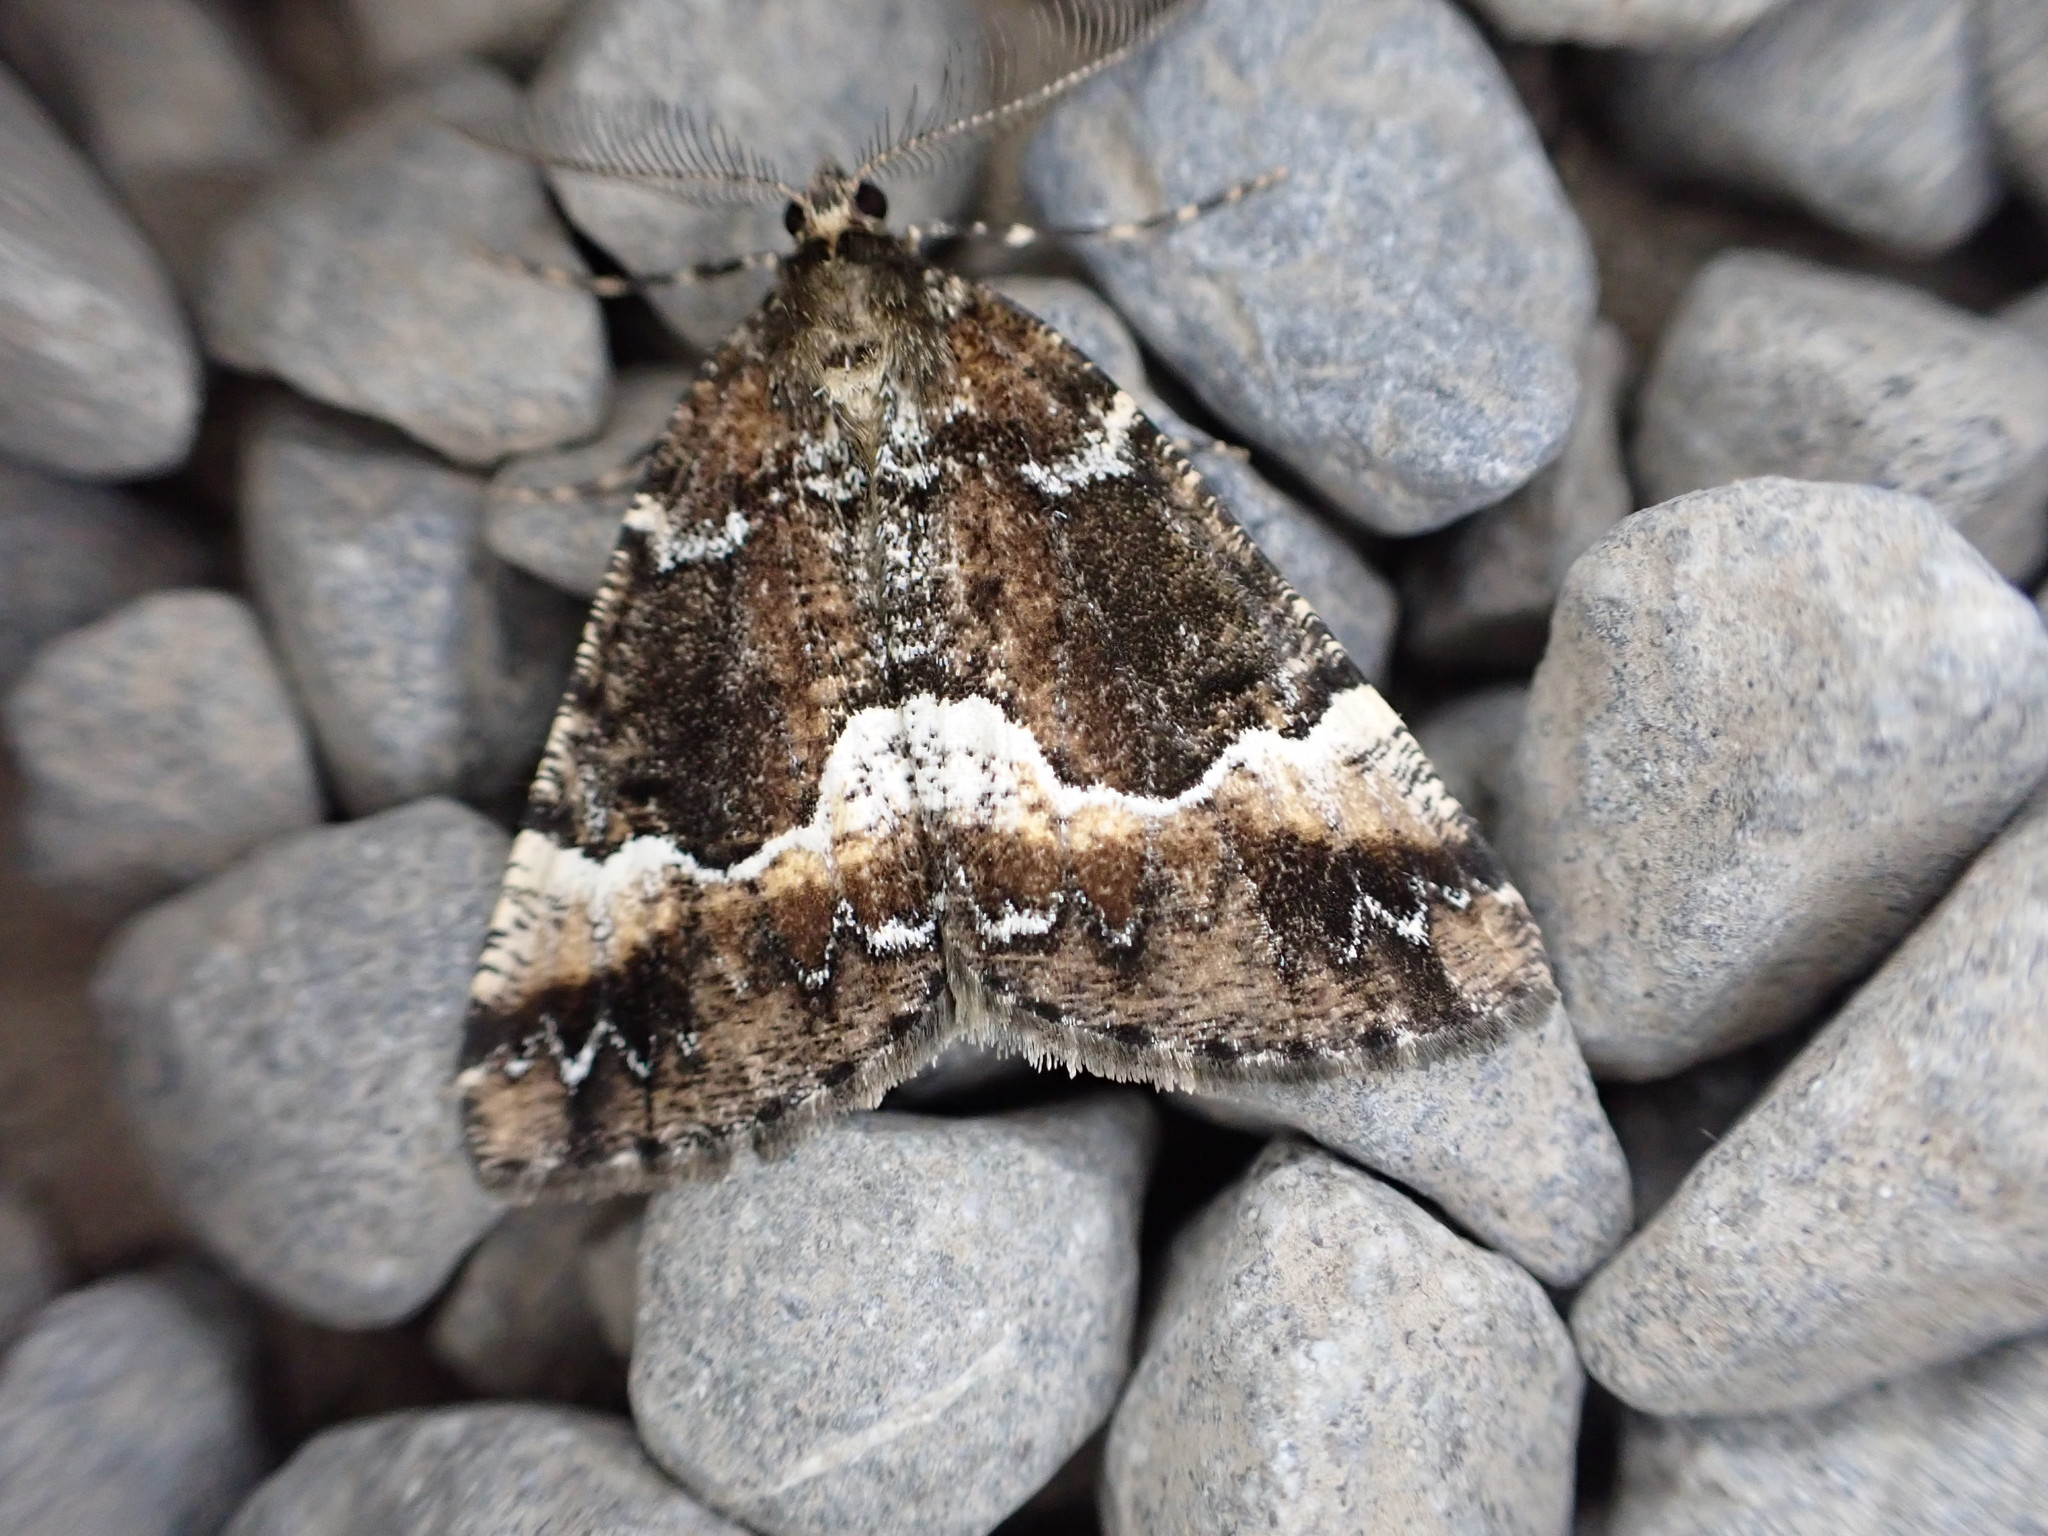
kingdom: Animalia
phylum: Arthropoda
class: Insecta
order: Lepidoptera
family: Geometridae
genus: Pseudocoremia
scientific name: Pseudocoremia insignita
